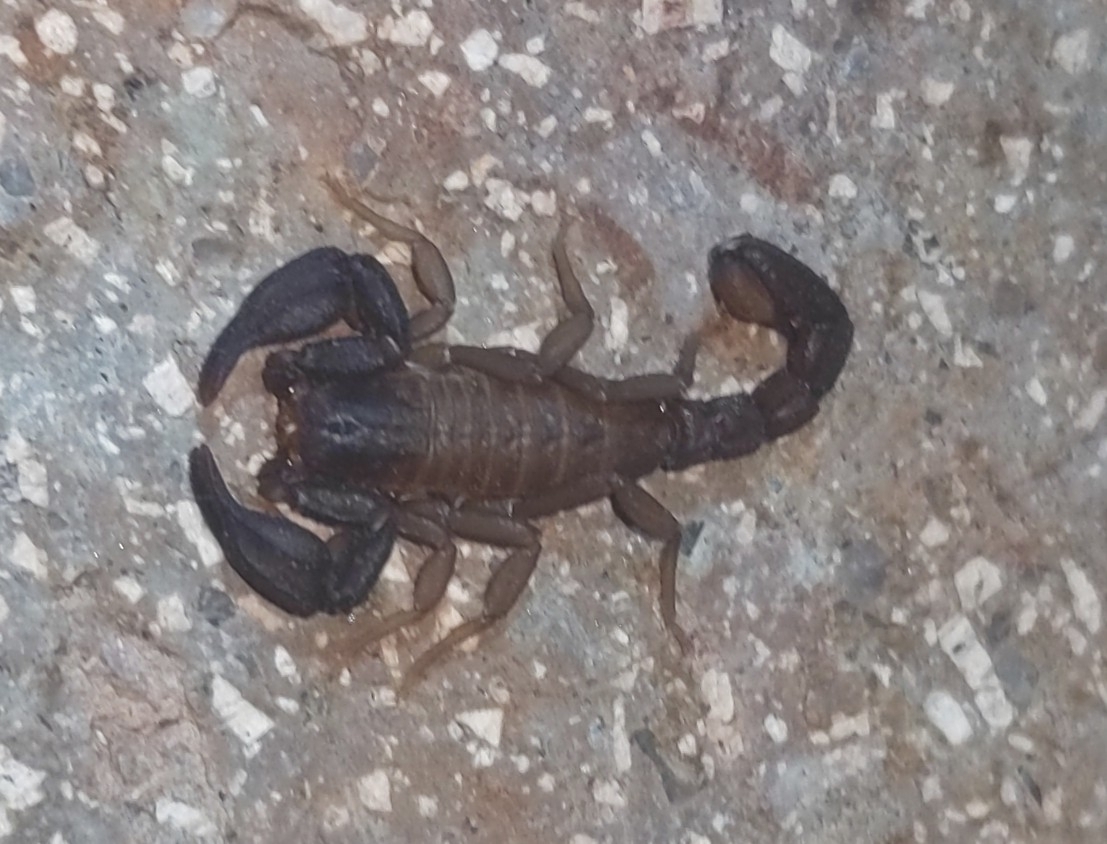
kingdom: Animalia
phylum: Arthropoda
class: Arachnida
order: Scorpiones
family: Vaejovidae
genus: Pseudouroctonus
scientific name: Pseudouroctonus apacheanus
